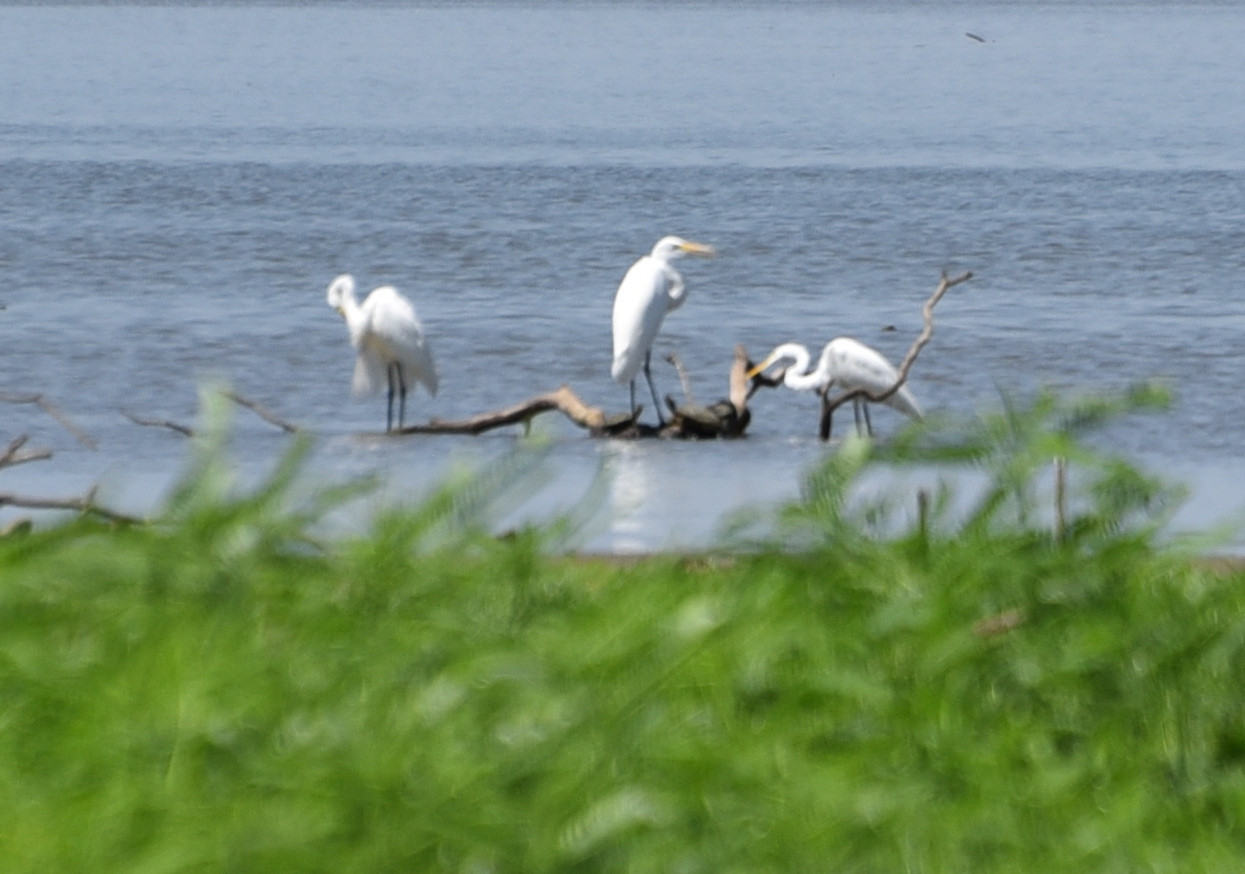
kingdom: Animalia
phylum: Chordata
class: Aves
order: Pelecaniformes
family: Ardeidae
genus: Ardea
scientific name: Ardea alba
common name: Great egret
